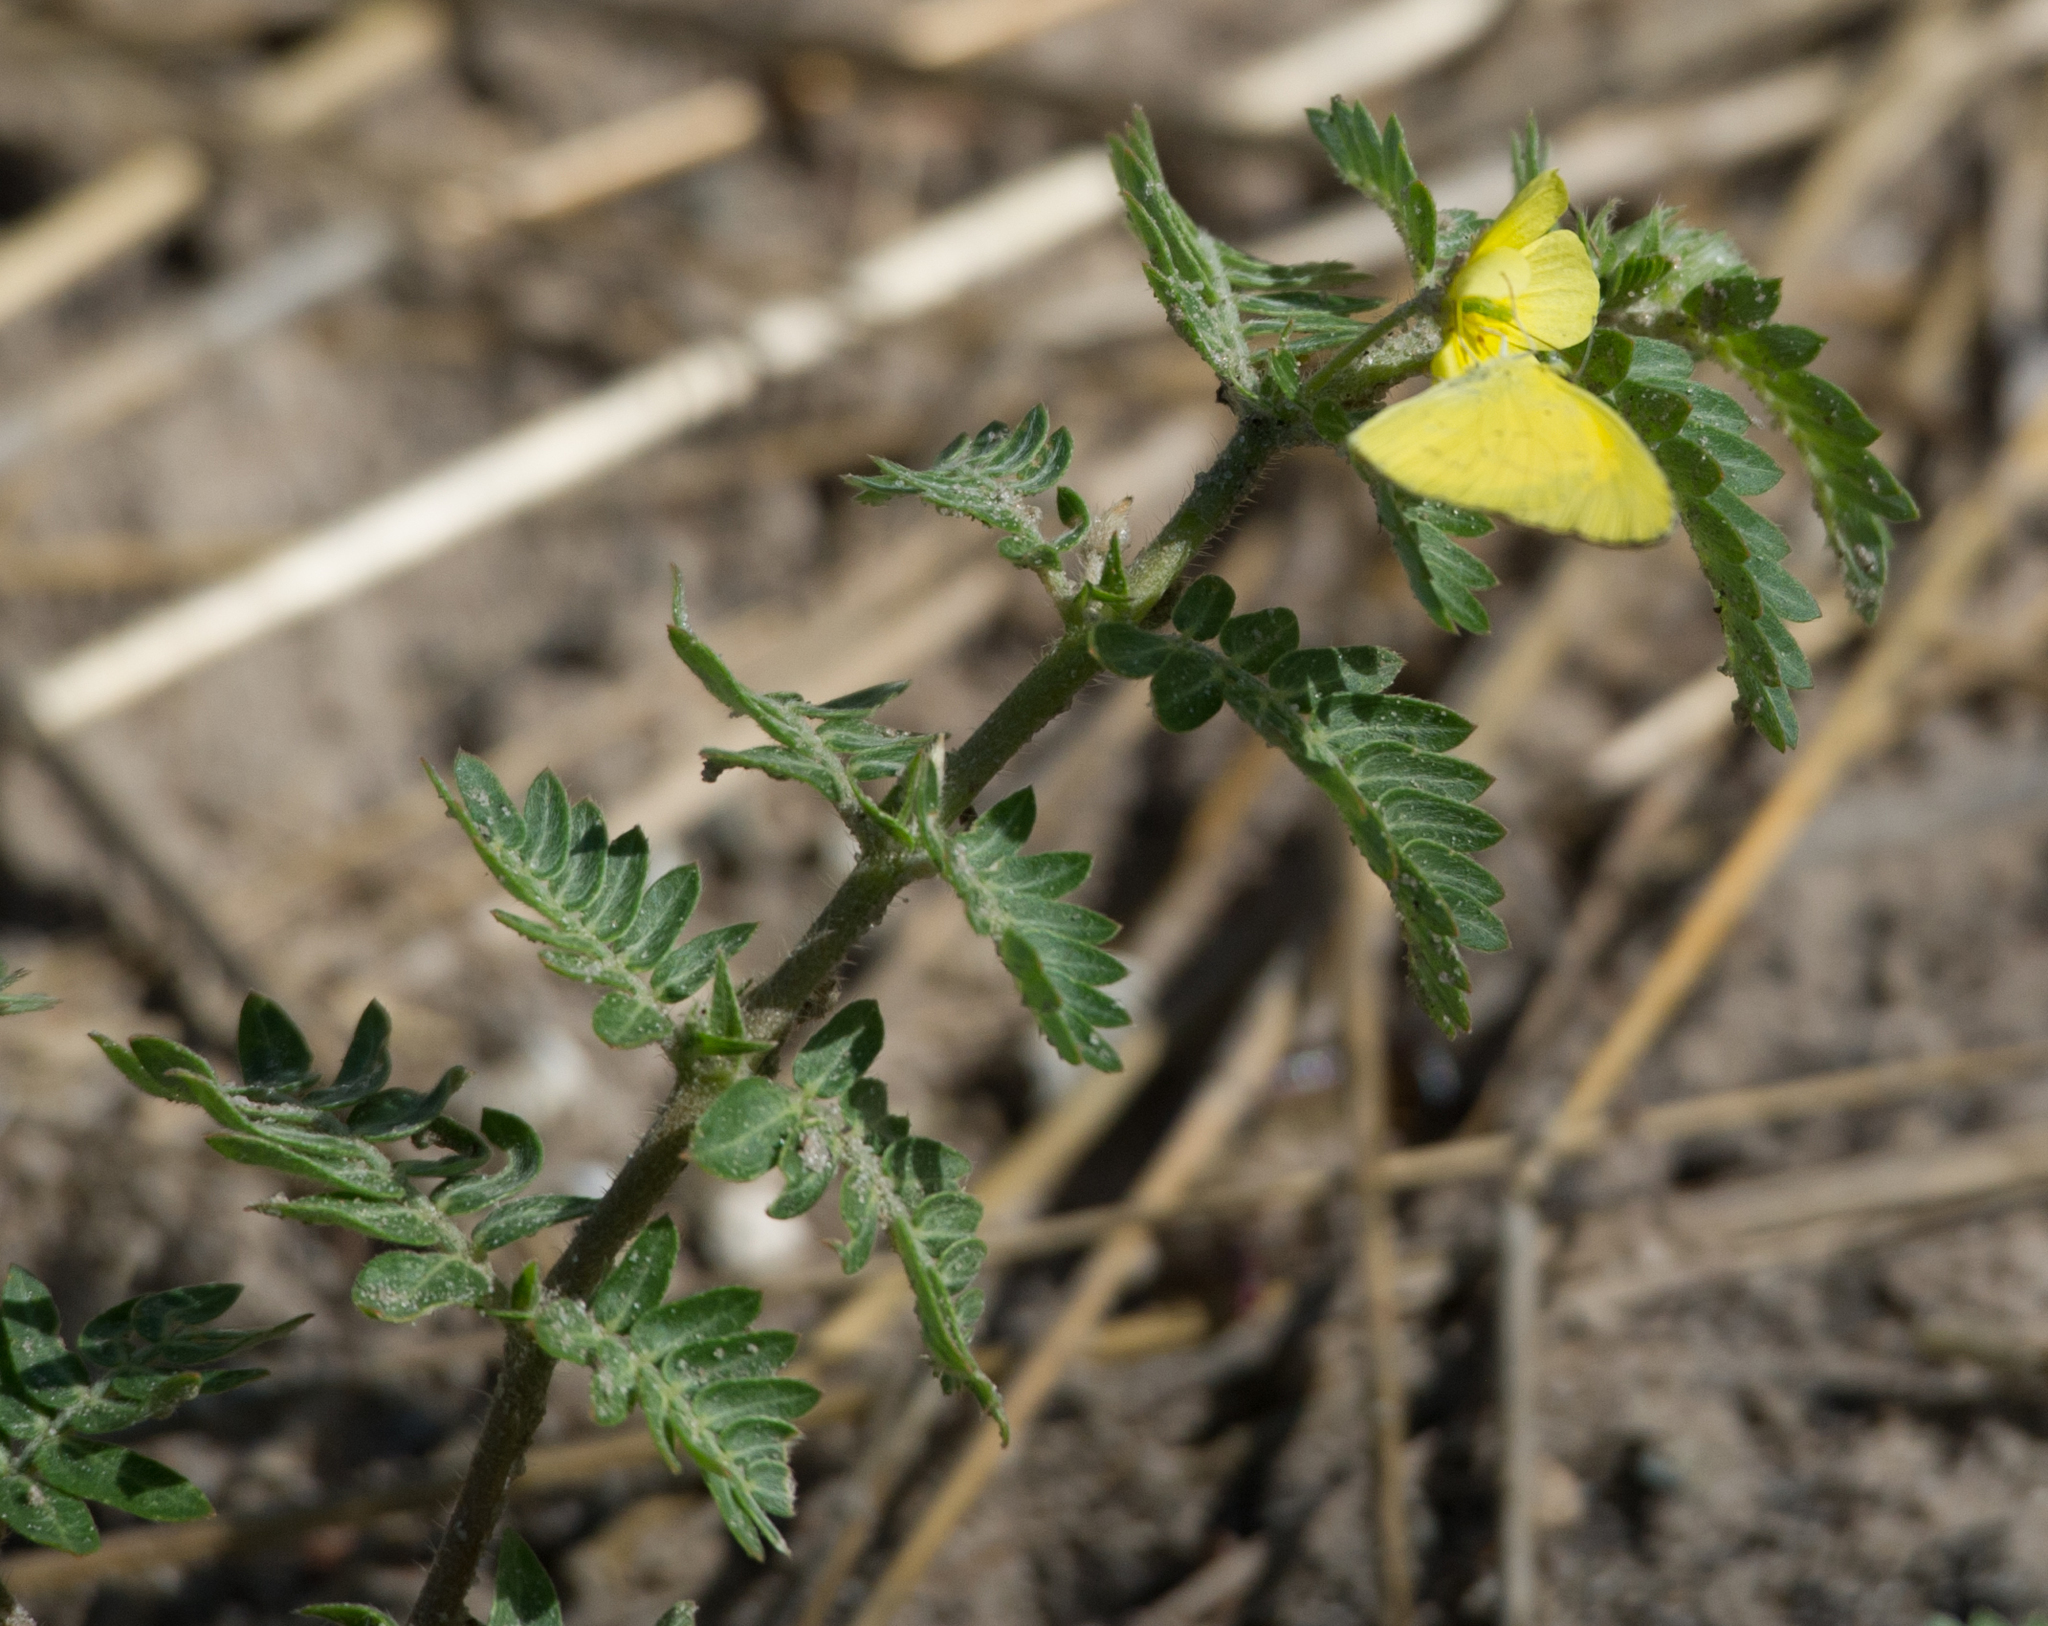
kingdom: Plantae
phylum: Tracheophyta
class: Magnoliopsida
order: Zygophyllales
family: Zygophyllaceae
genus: Tribulus
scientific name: Tribulus terrestris
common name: Puncturevine
